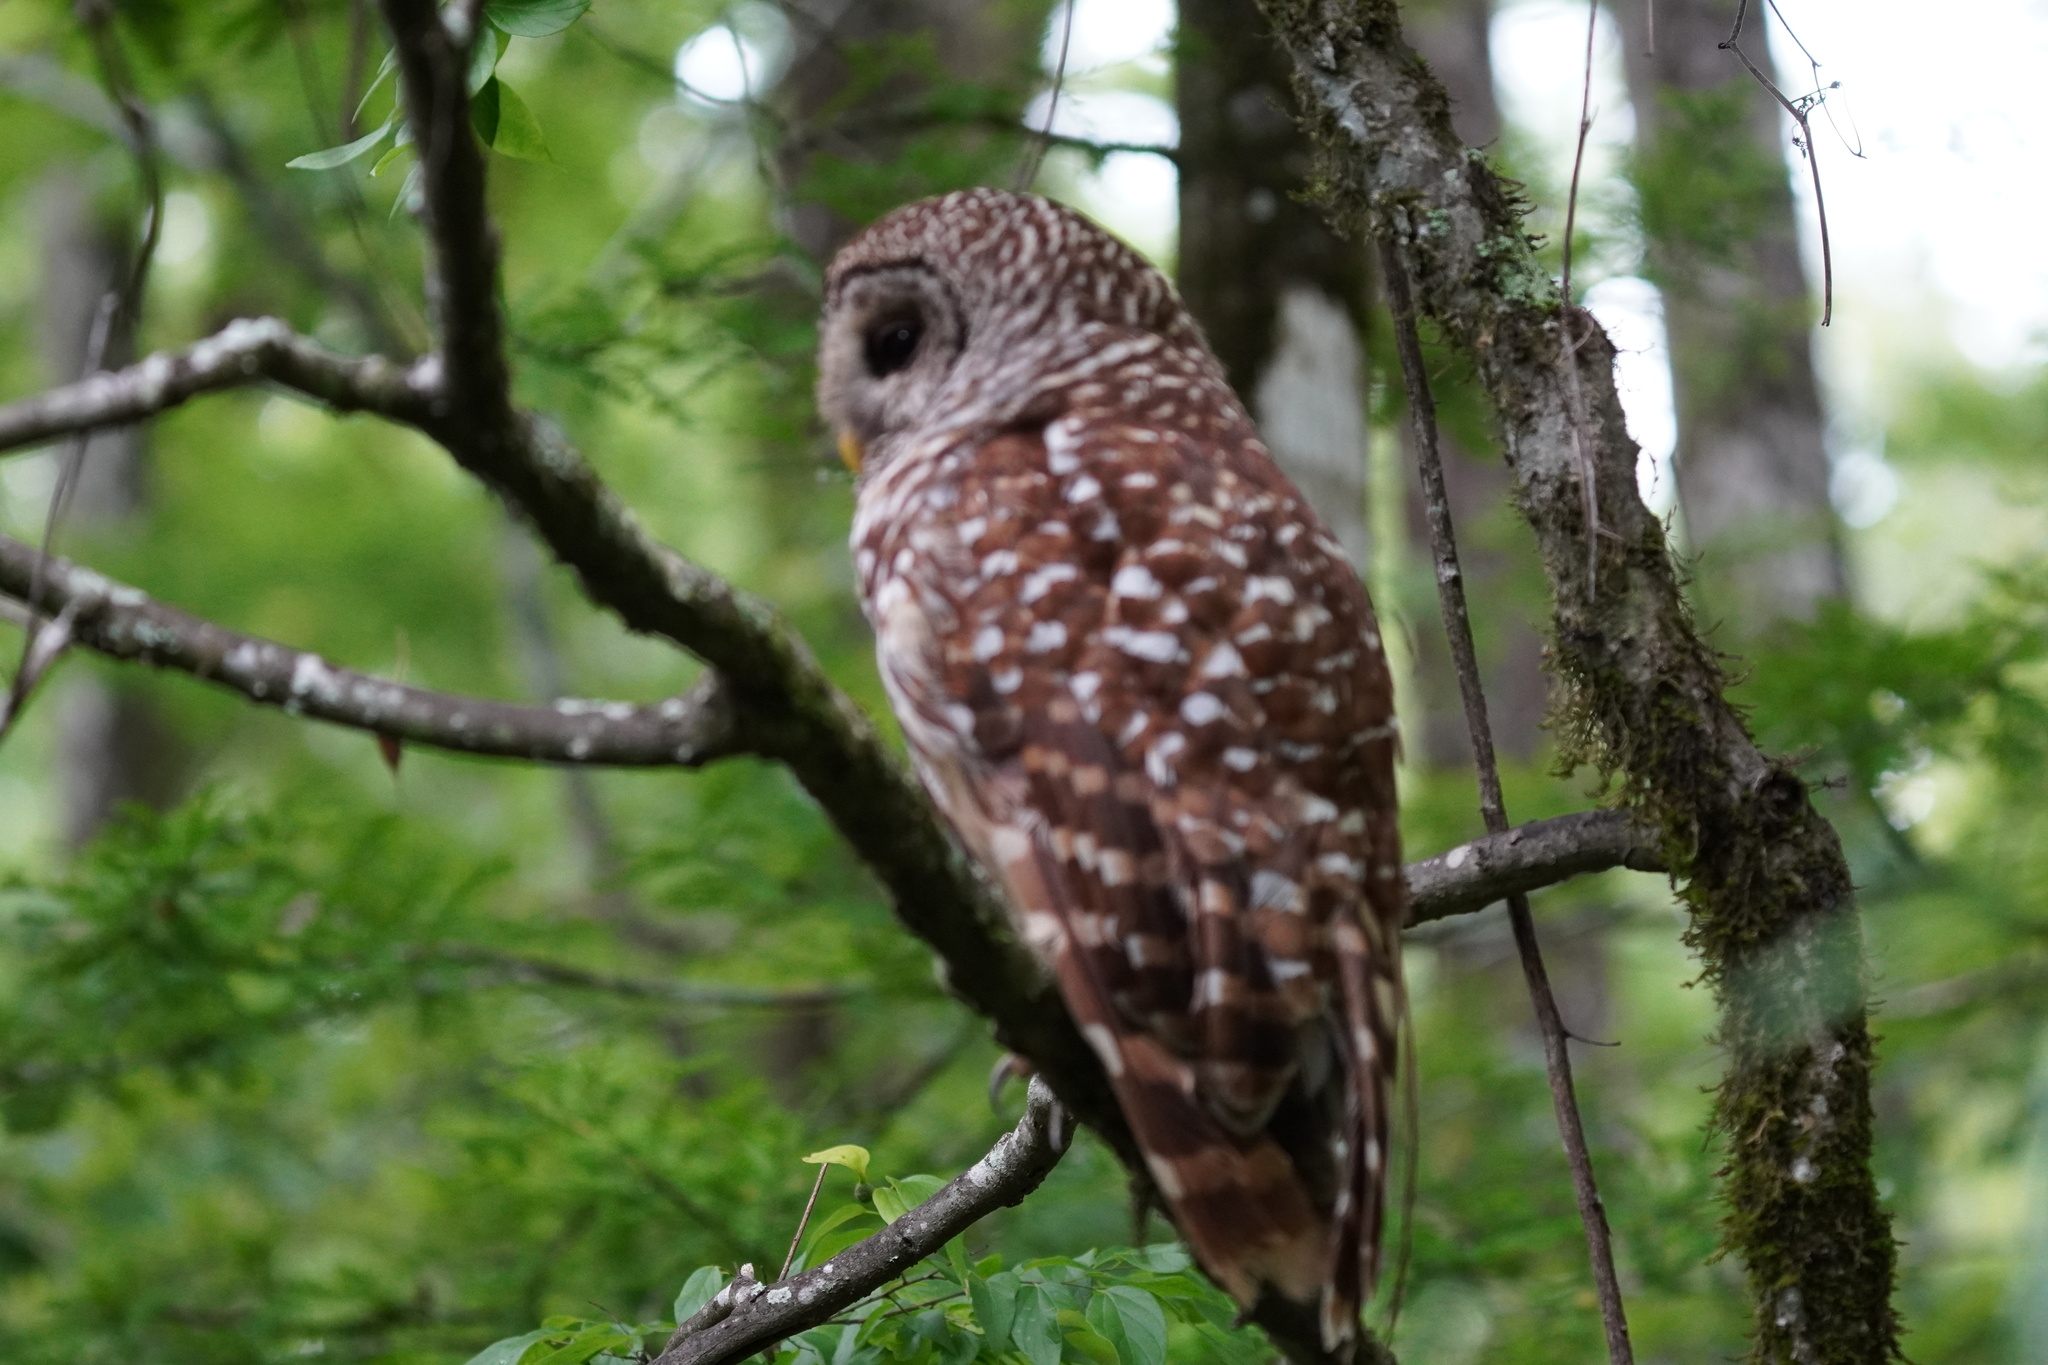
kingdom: Animalia
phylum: Chordata
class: Aves
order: Strigiformes
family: Strigidae
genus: Strix
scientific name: Strix varia
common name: Barred owl
